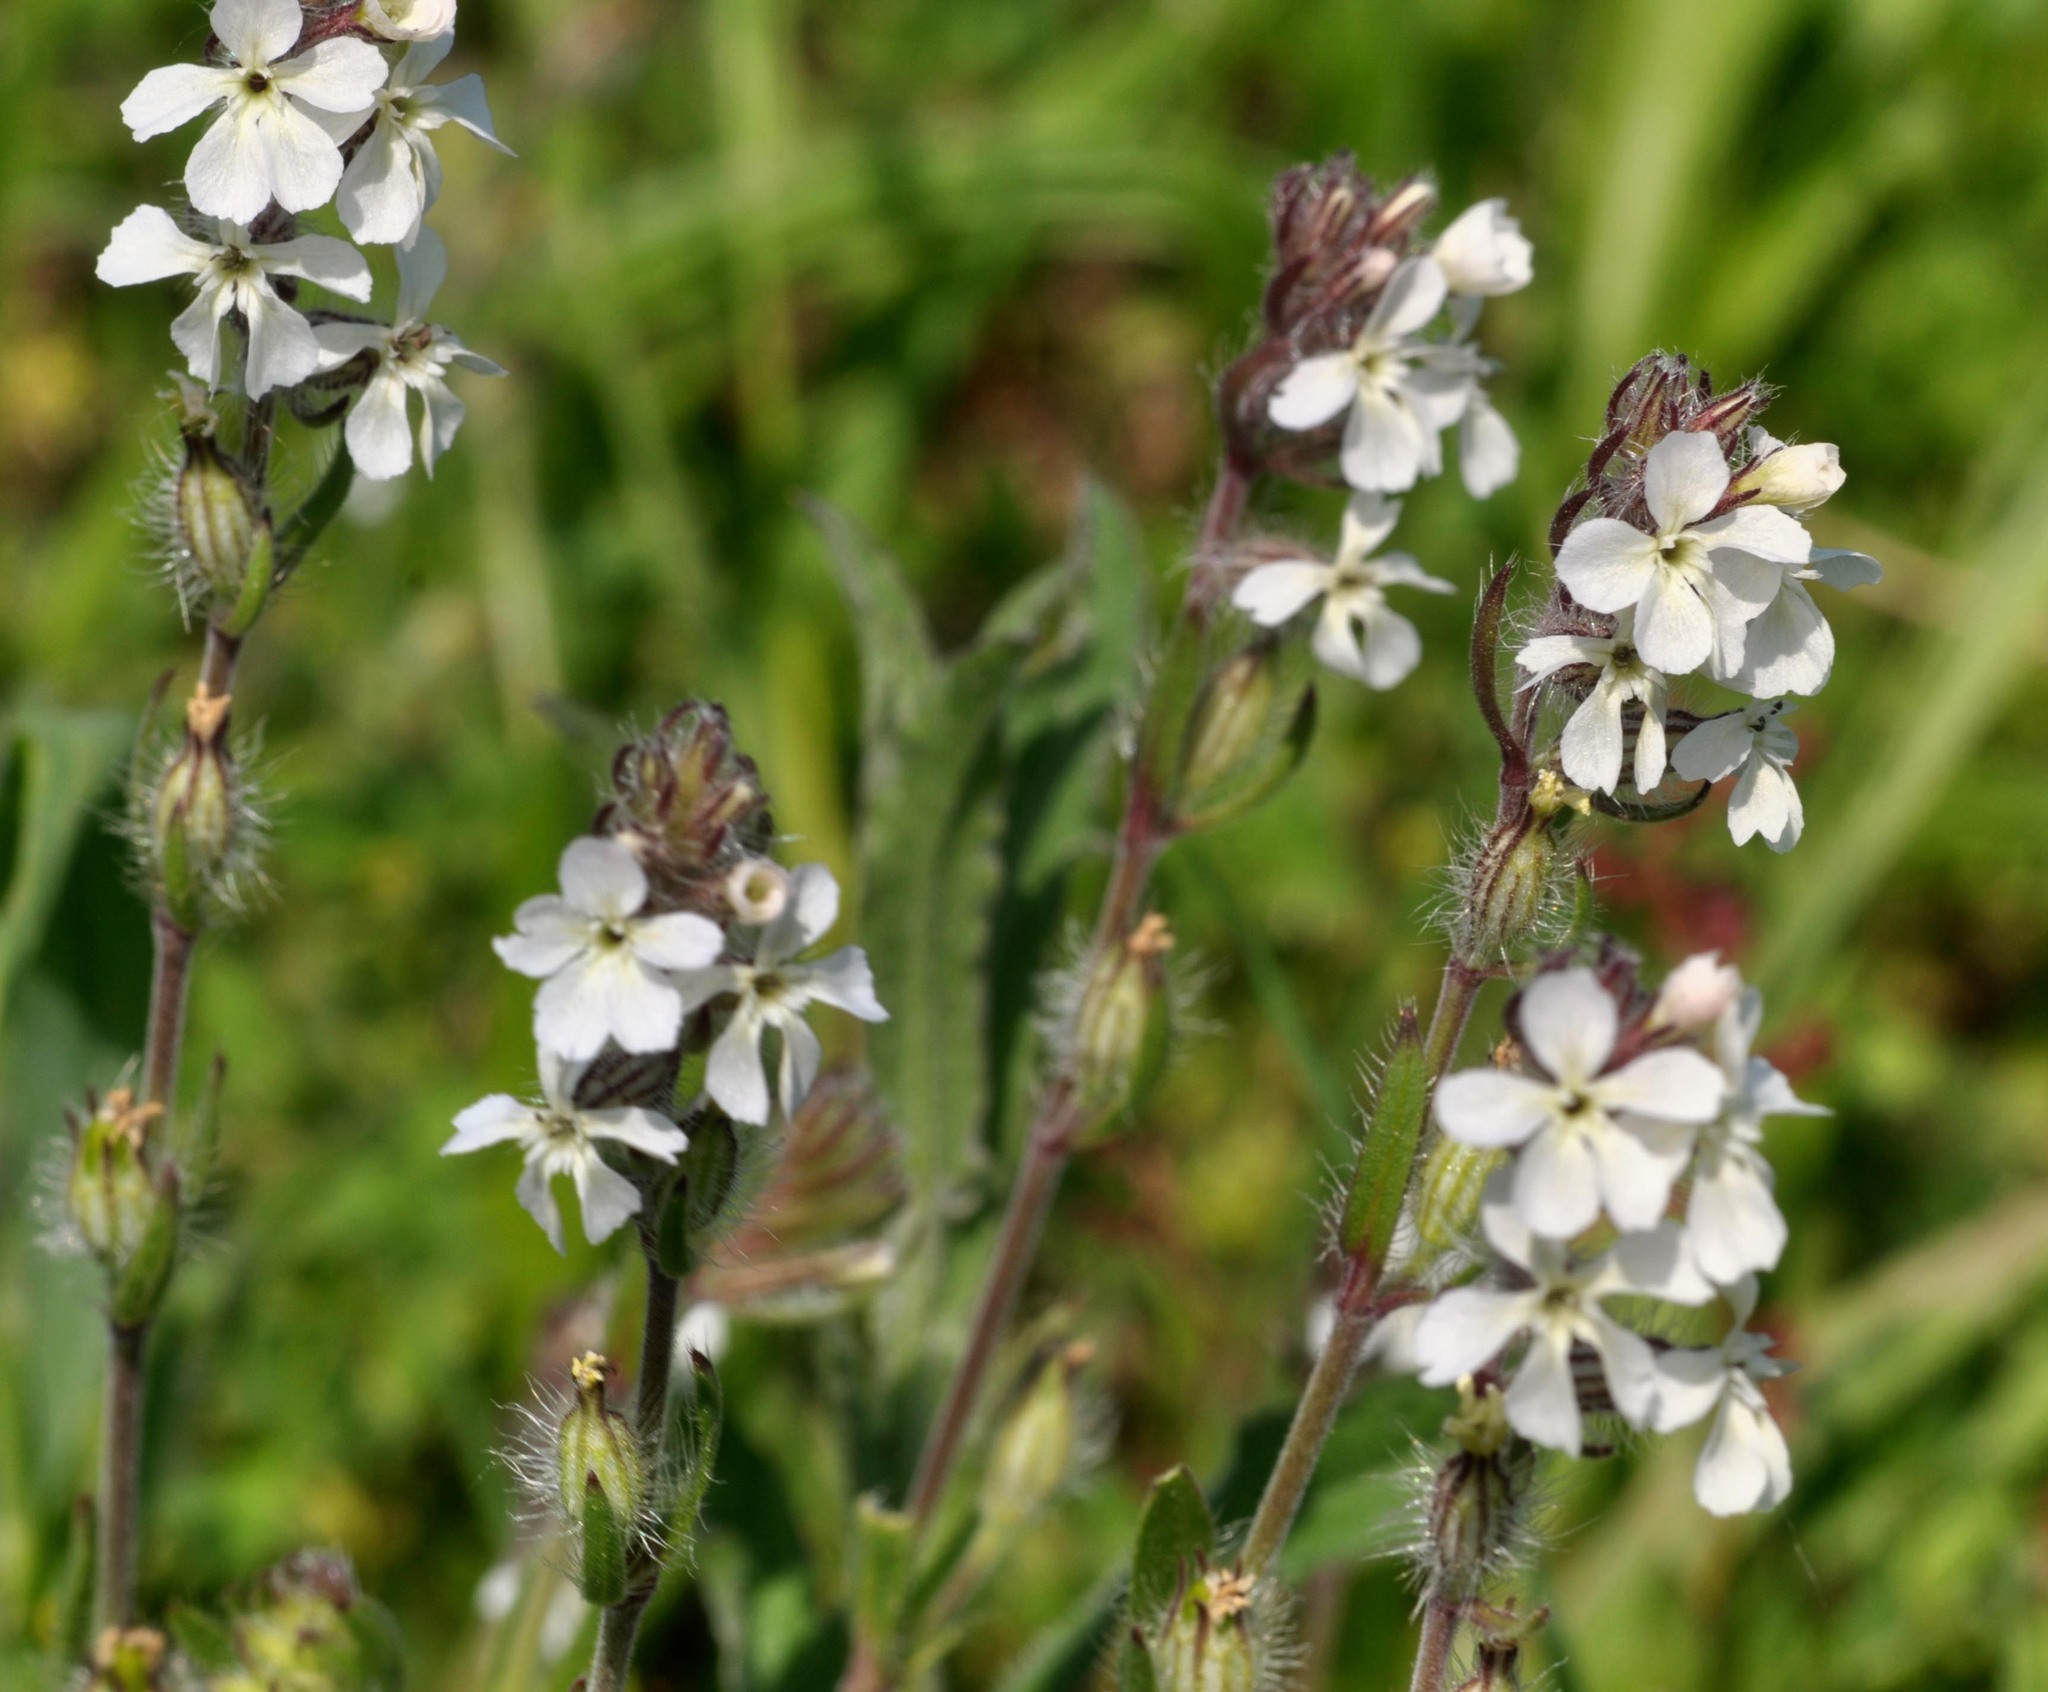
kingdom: Plantae
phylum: Tracheophyta
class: Magnoliopsida
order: Caryophyllales
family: Caryophyllaceae
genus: Silene
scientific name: Silene gallica
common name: Small-flowered catchfly
